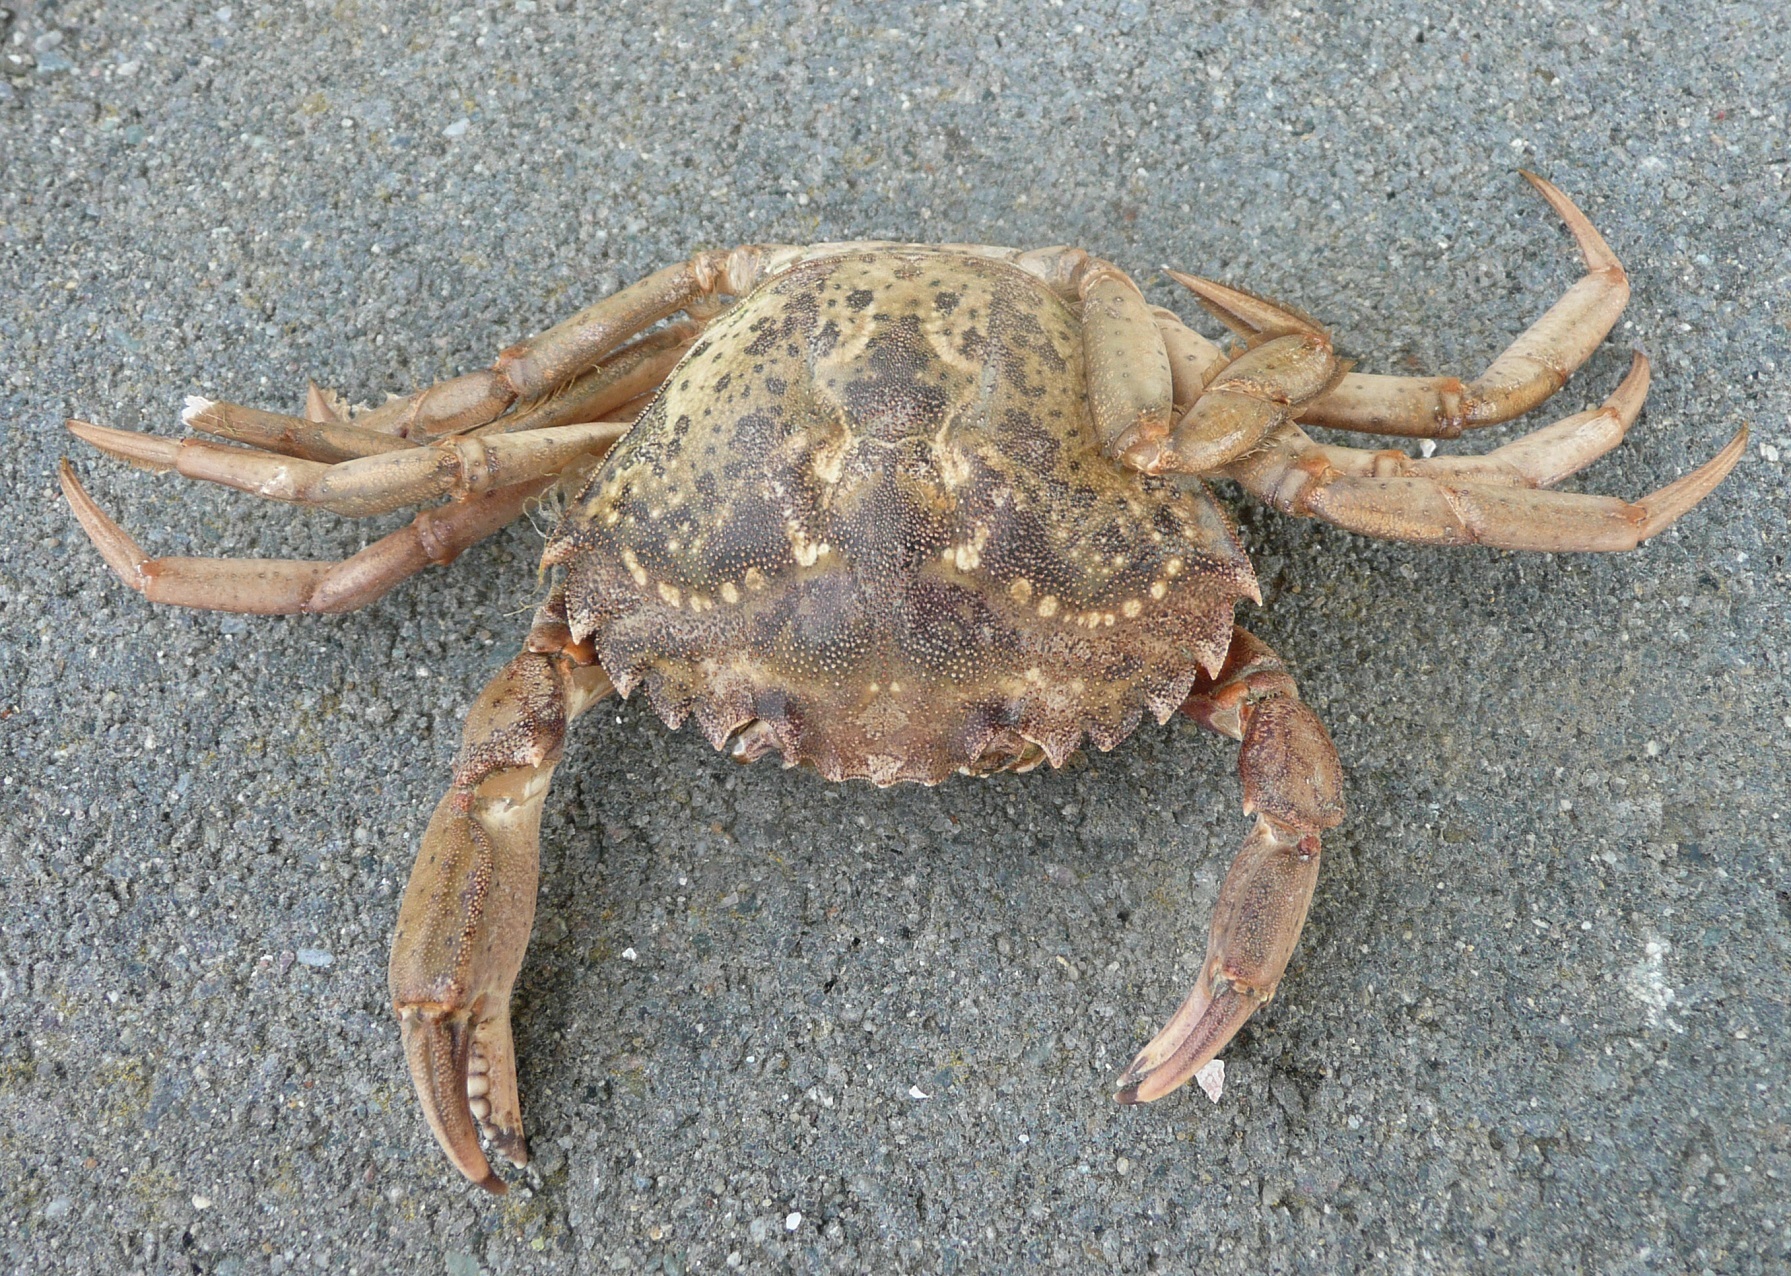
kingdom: Animalia
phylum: Arthropoda
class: Malacostraca
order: Decapoda
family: Carcinidae
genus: Carcinus
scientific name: Carcinus maenas
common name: European green crab
